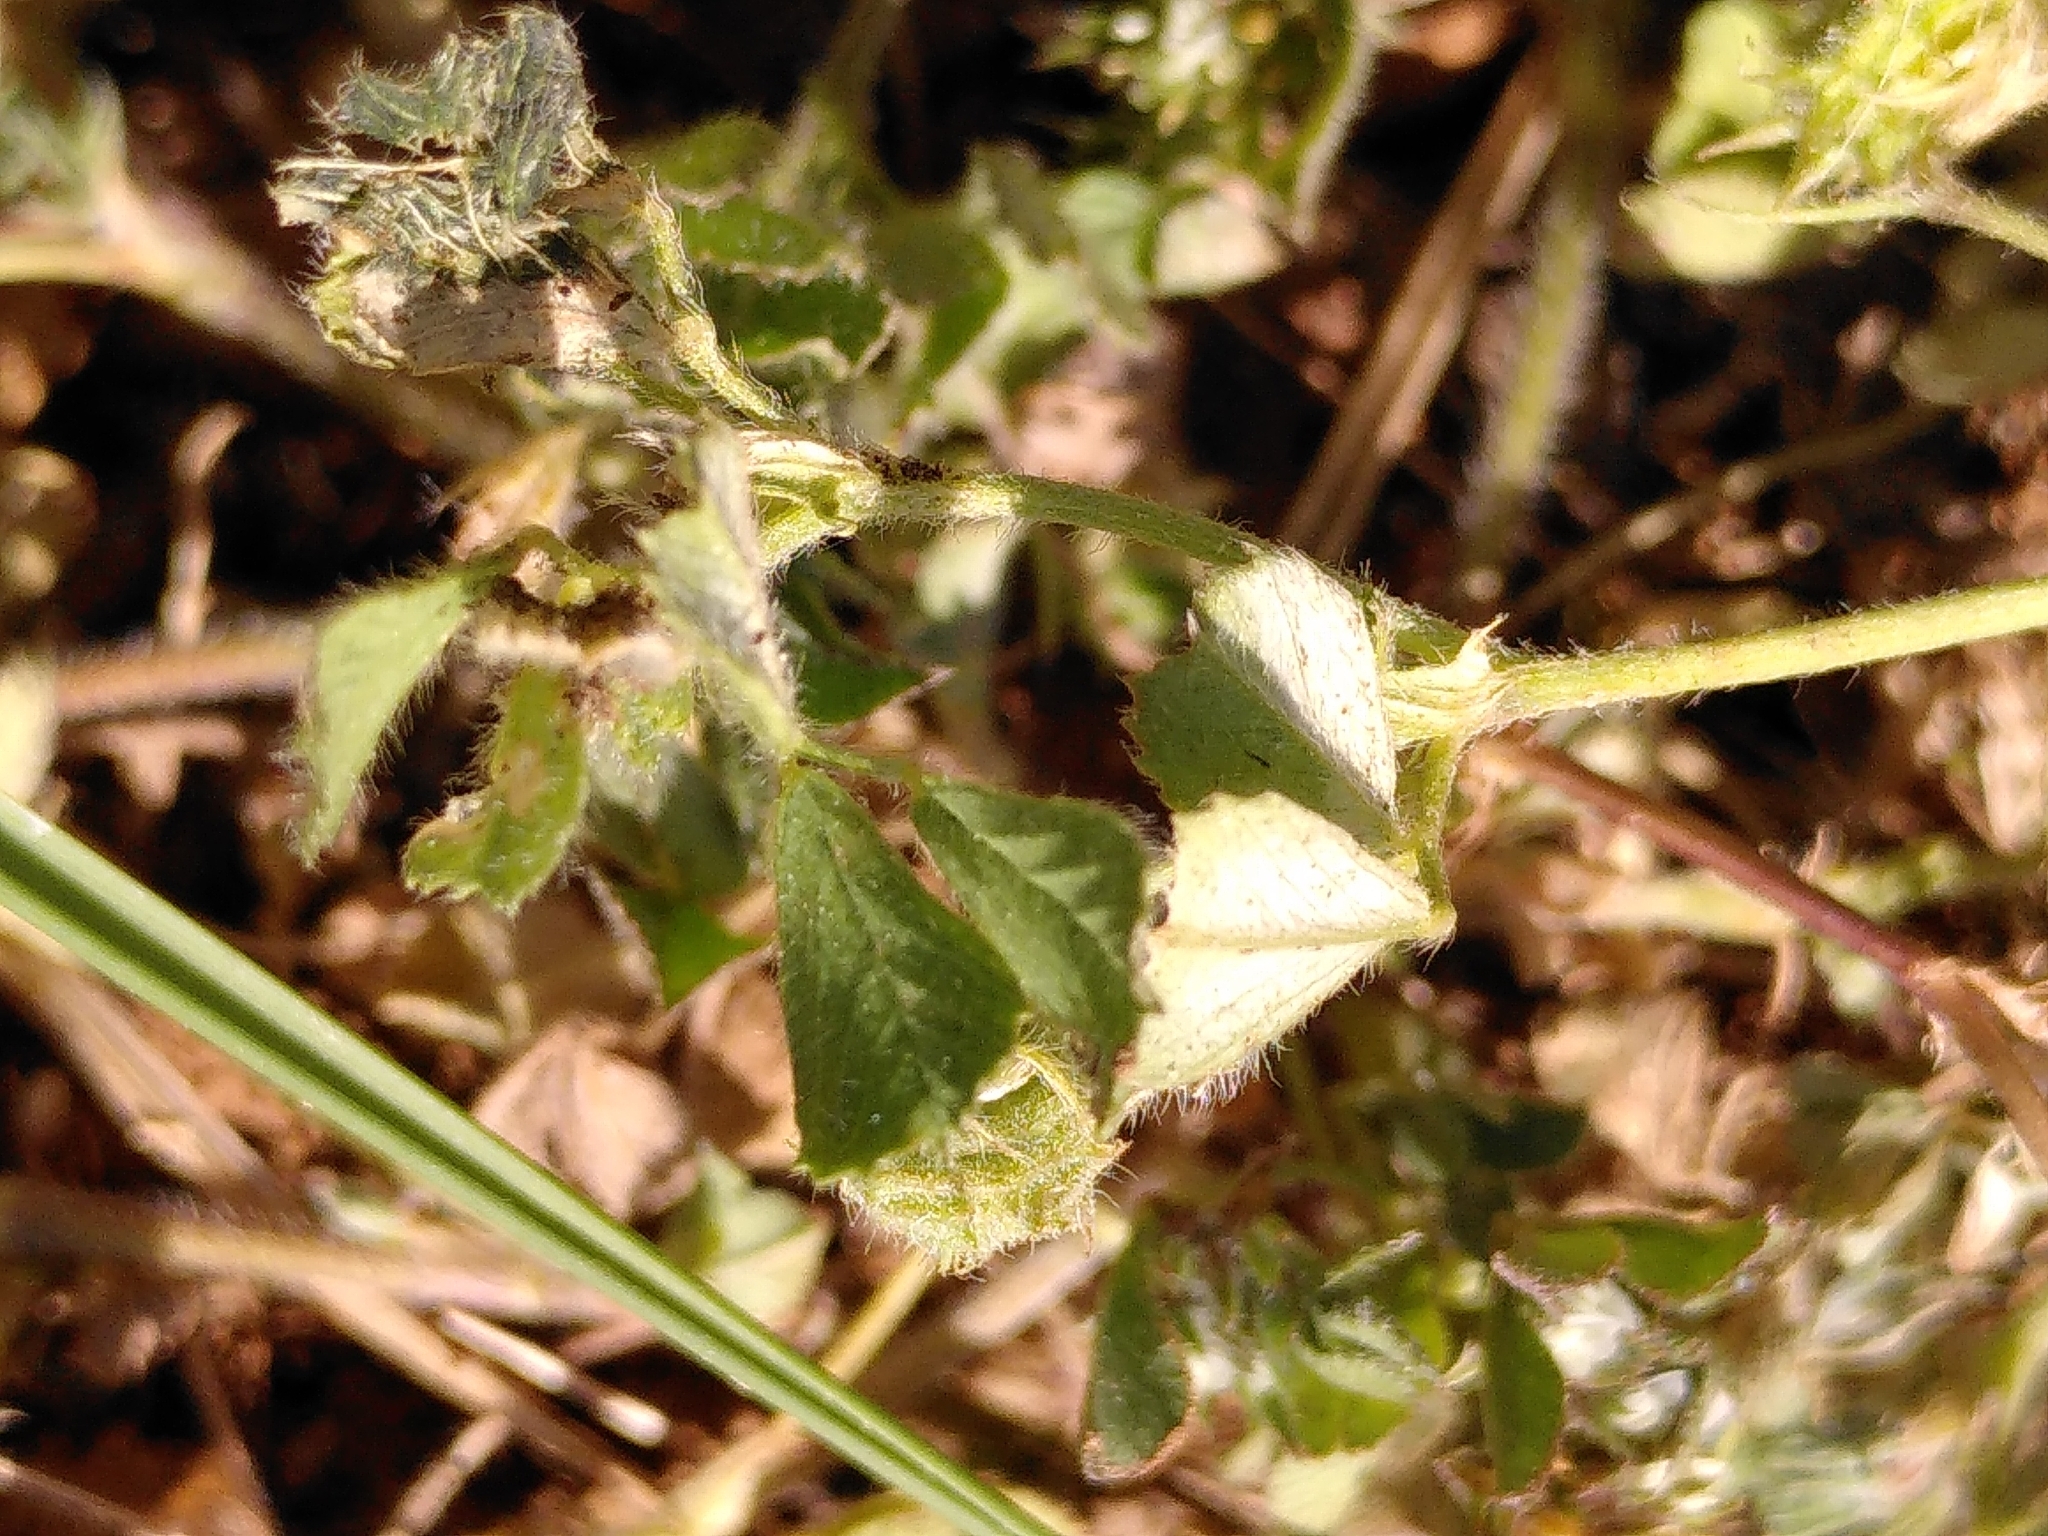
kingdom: Plantae
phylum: Tracheophyta
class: Magnoliopsida
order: Fabales
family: Fabaceae
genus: Medicago
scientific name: Medicago rigidula
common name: Tifton medic
